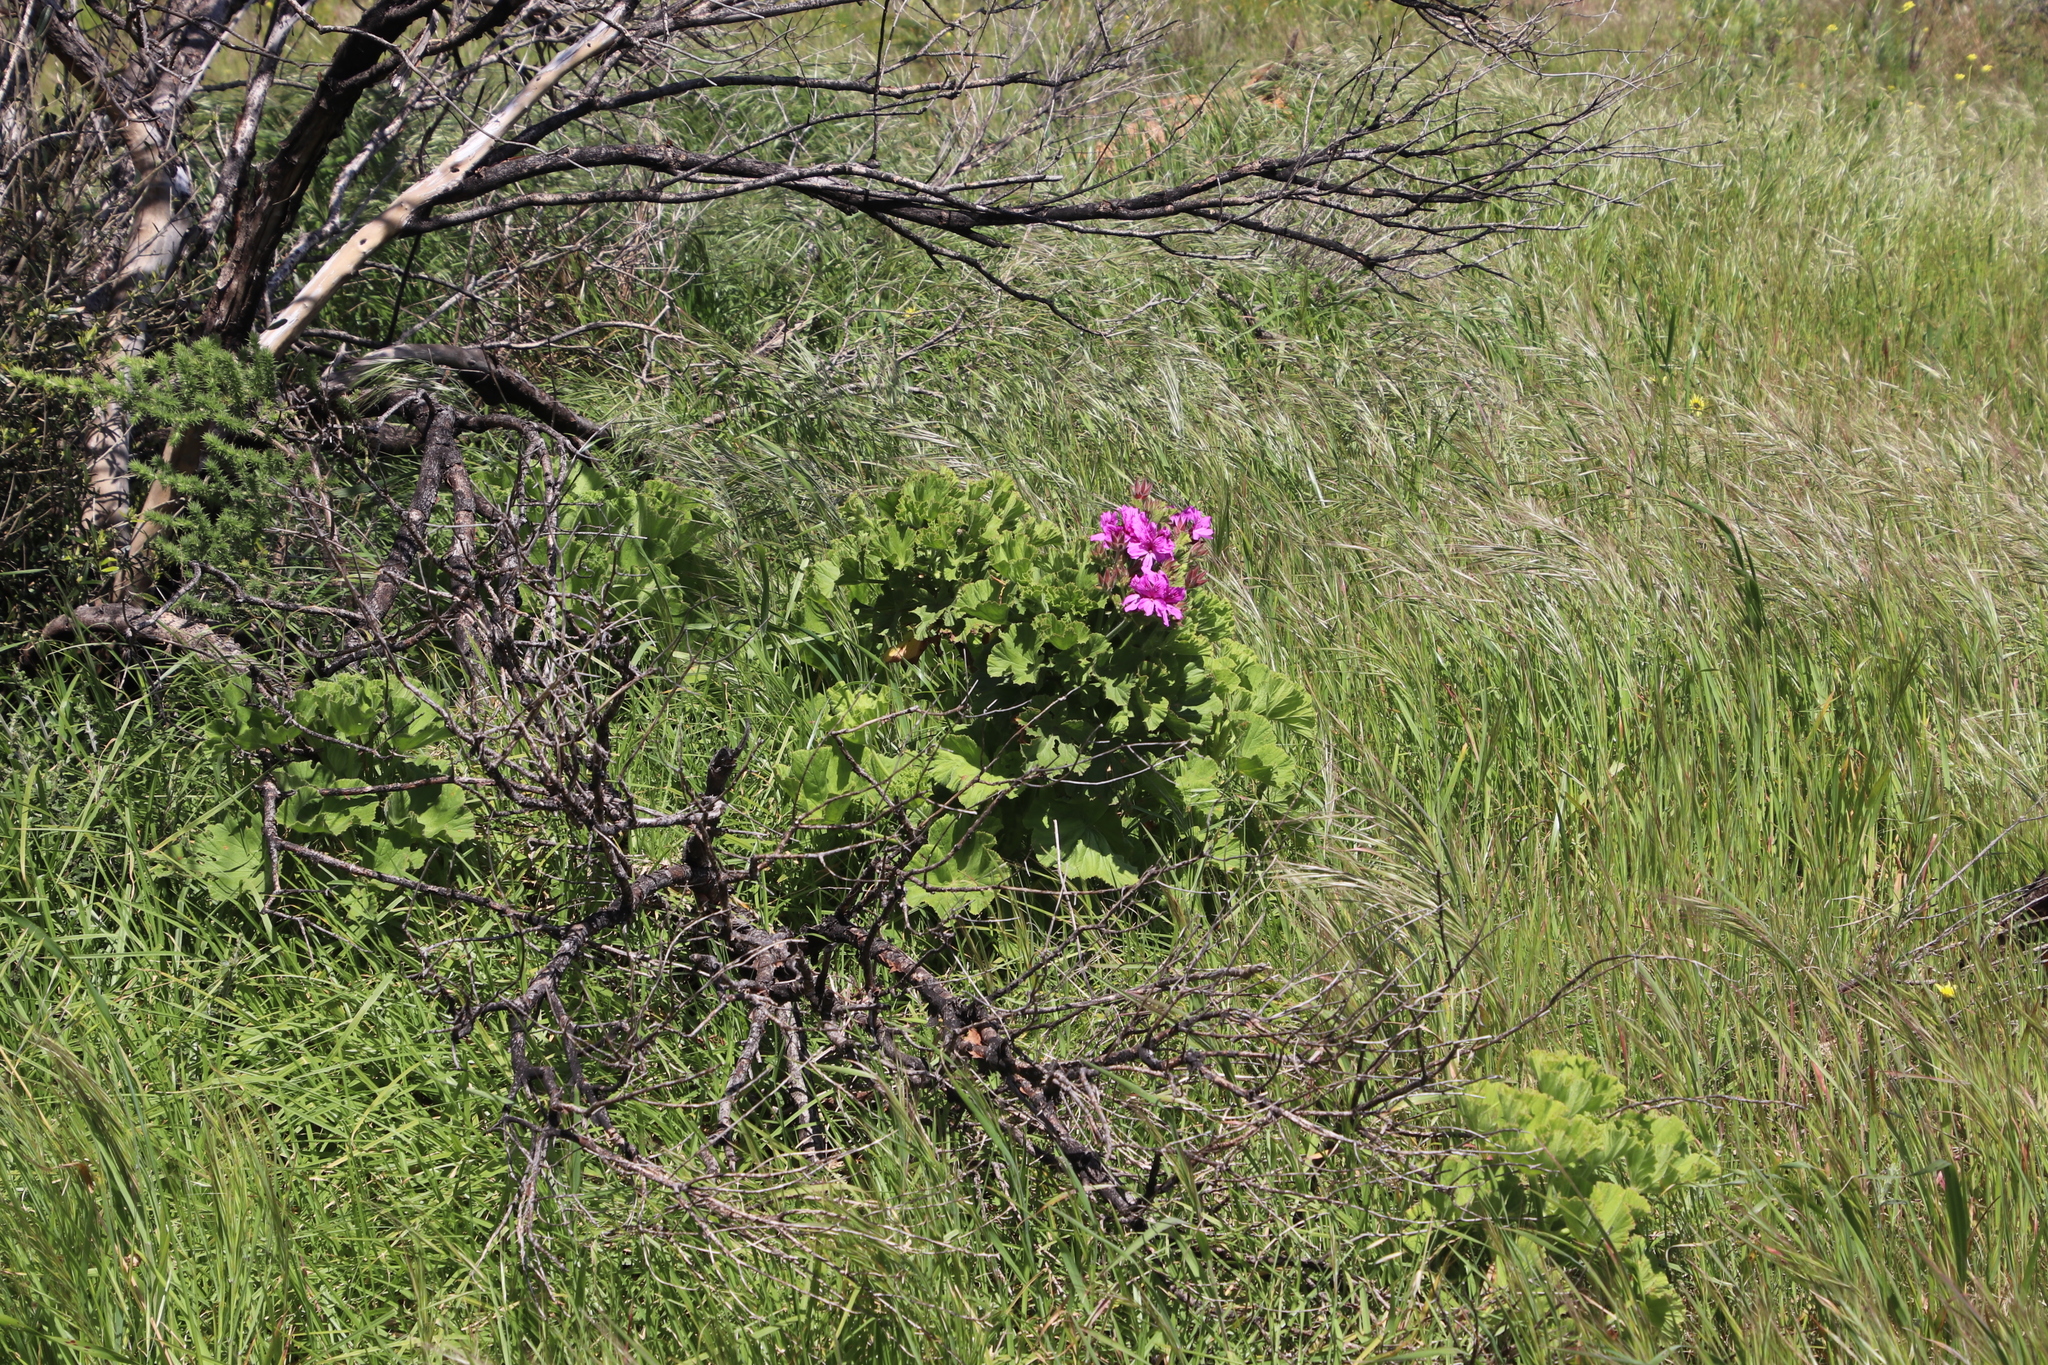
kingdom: Plantae
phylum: Tracheophyta
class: Magnoliopsida
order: Geraniales
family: Geraniaceae
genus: Pelargonium
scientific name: Pelargonium cucullatum
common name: Tree pelargonium
